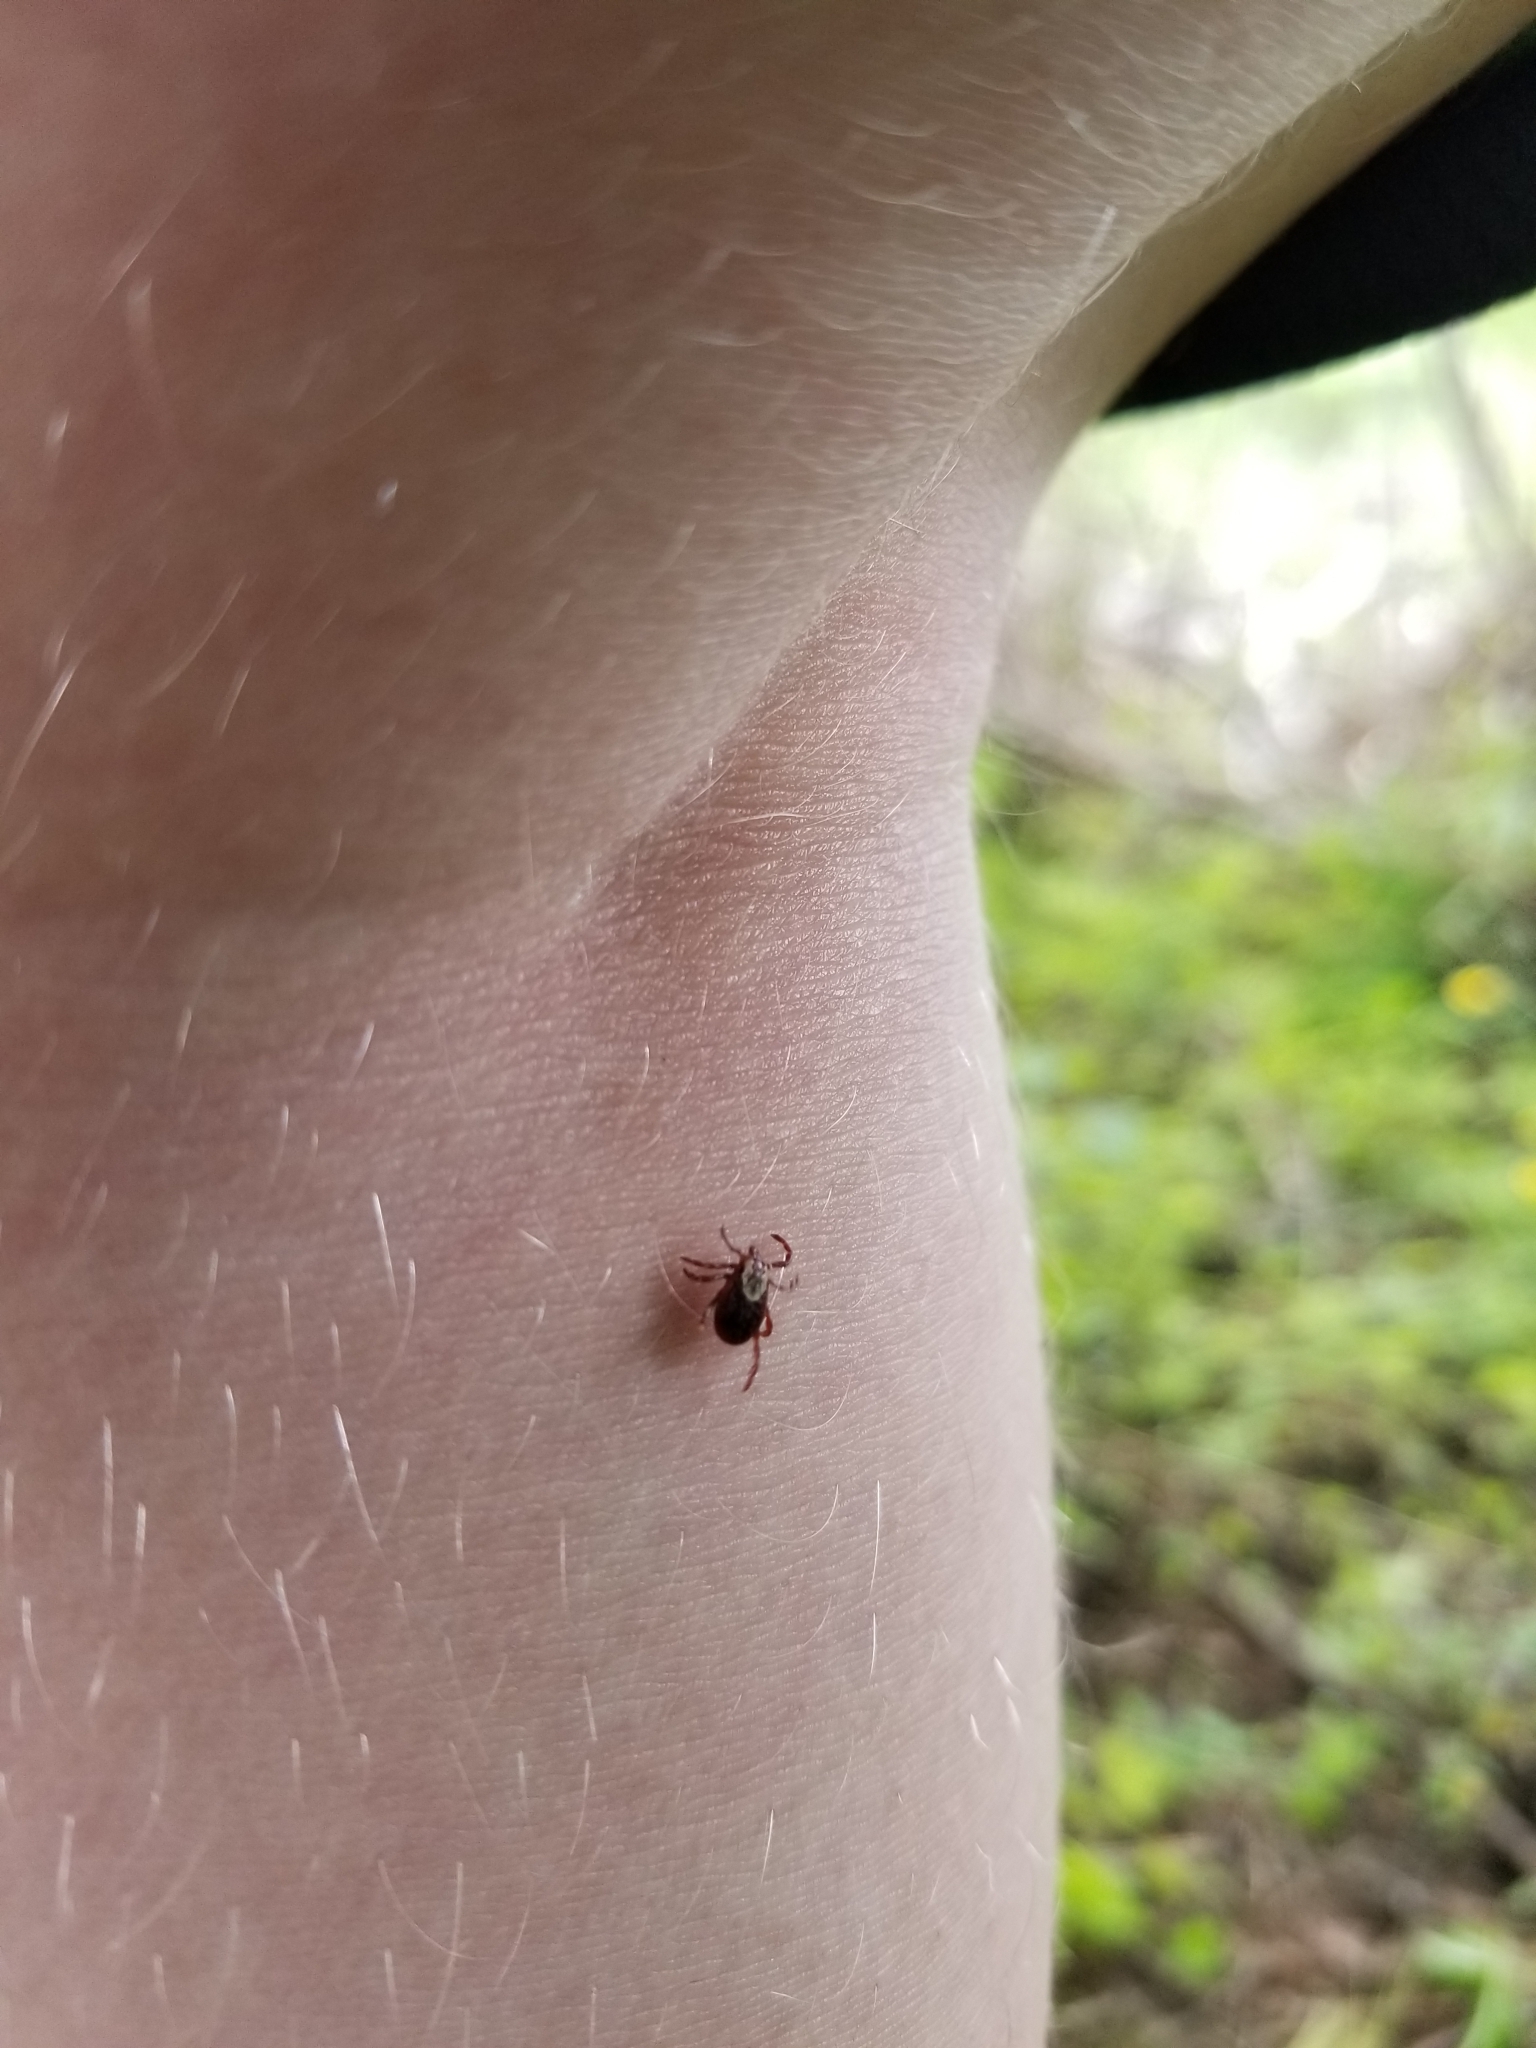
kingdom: Animalia
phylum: Arthropoda
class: Arachnida
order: Ixodida
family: Ixodidae
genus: Dermacentor
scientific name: Dermacentor variabilis
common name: American dog tick
